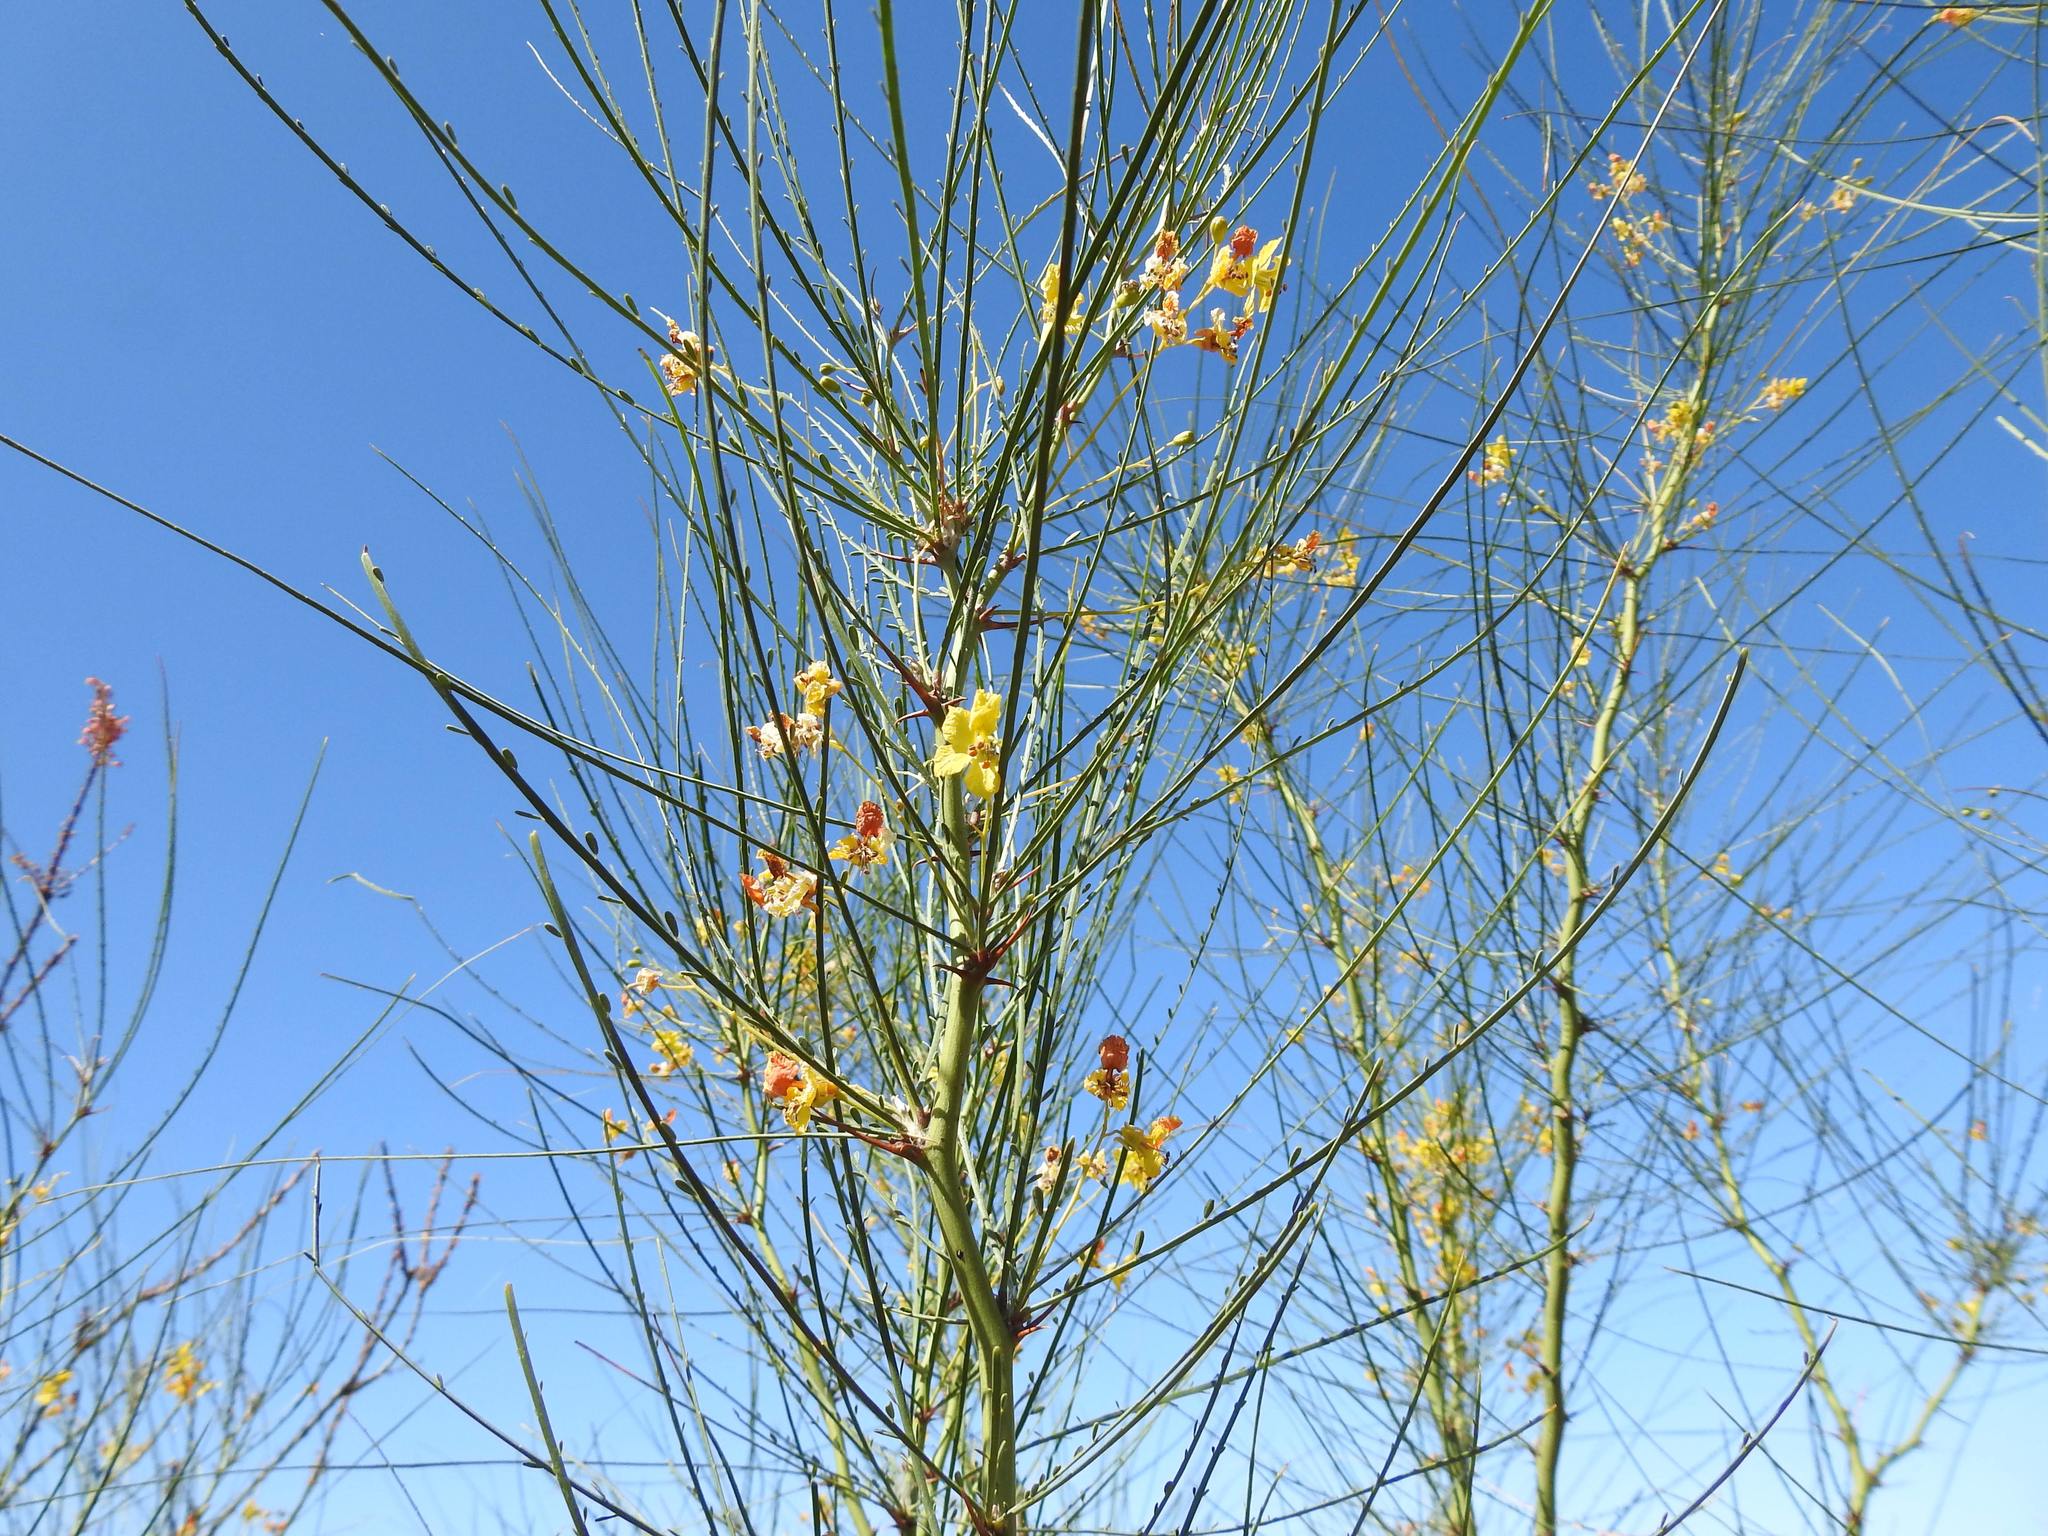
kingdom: Plantae
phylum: Tracheophyta
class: Magnoliopsida
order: Fabales
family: Fabaceae
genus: Parkinsonia
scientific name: Parkinsonia aculeata
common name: Jerusalem thorn
